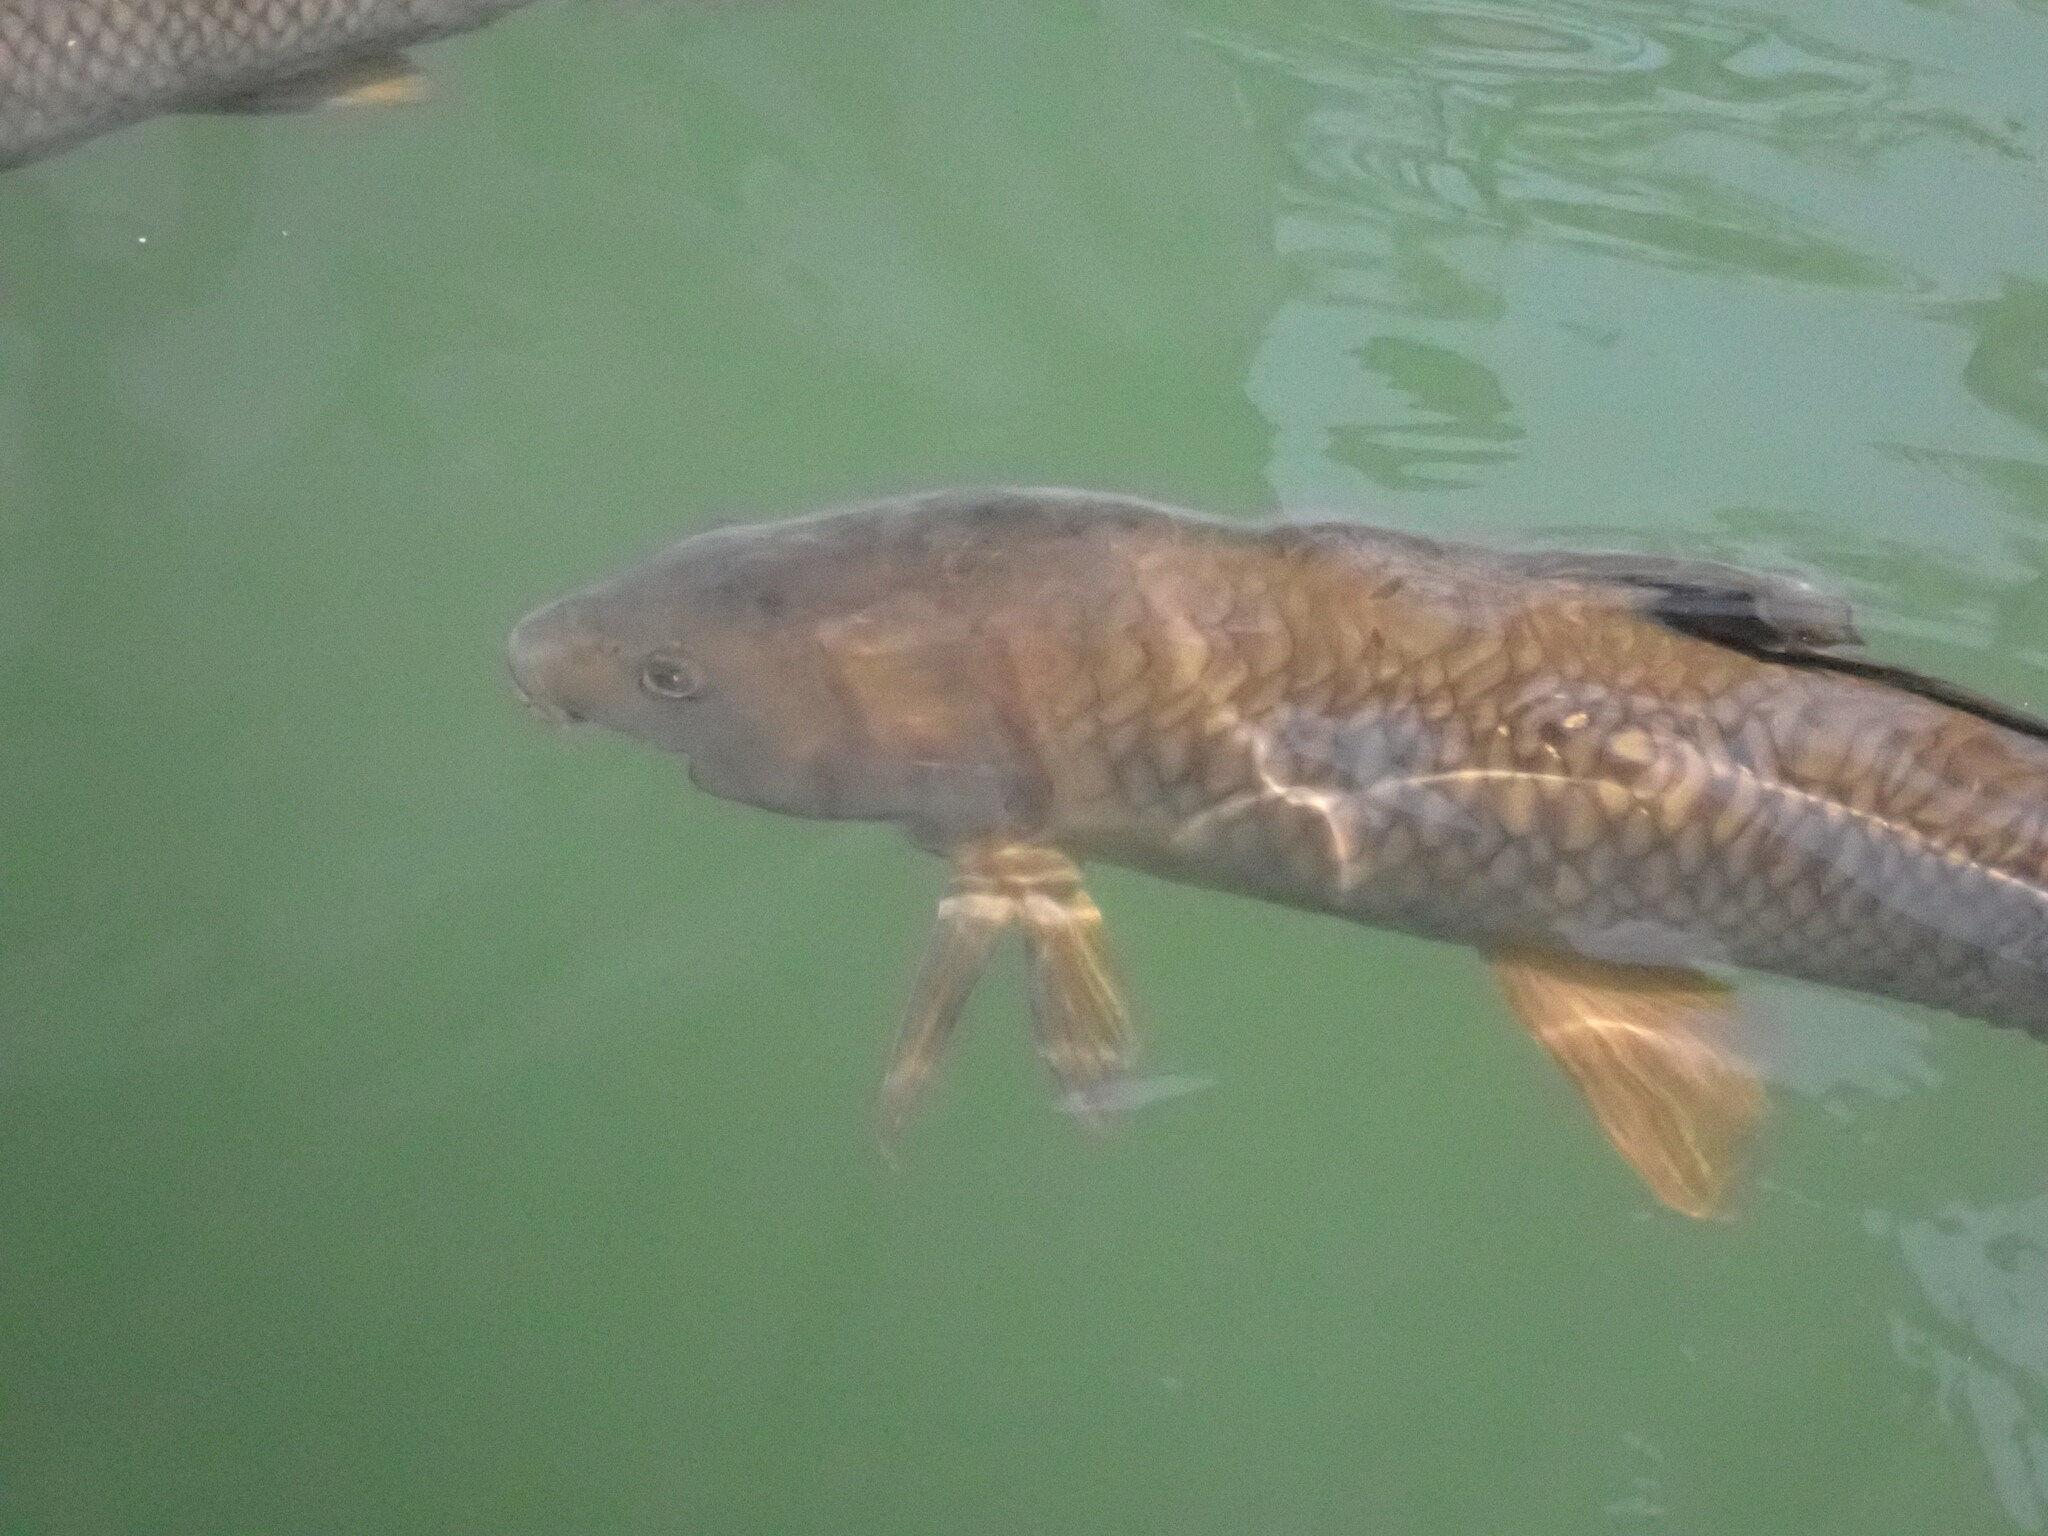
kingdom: Animalia
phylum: Chordata
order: Cypriniformes
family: Cyprinidae
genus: Cyprinus
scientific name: Cyprinus carpio
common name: Common carp
